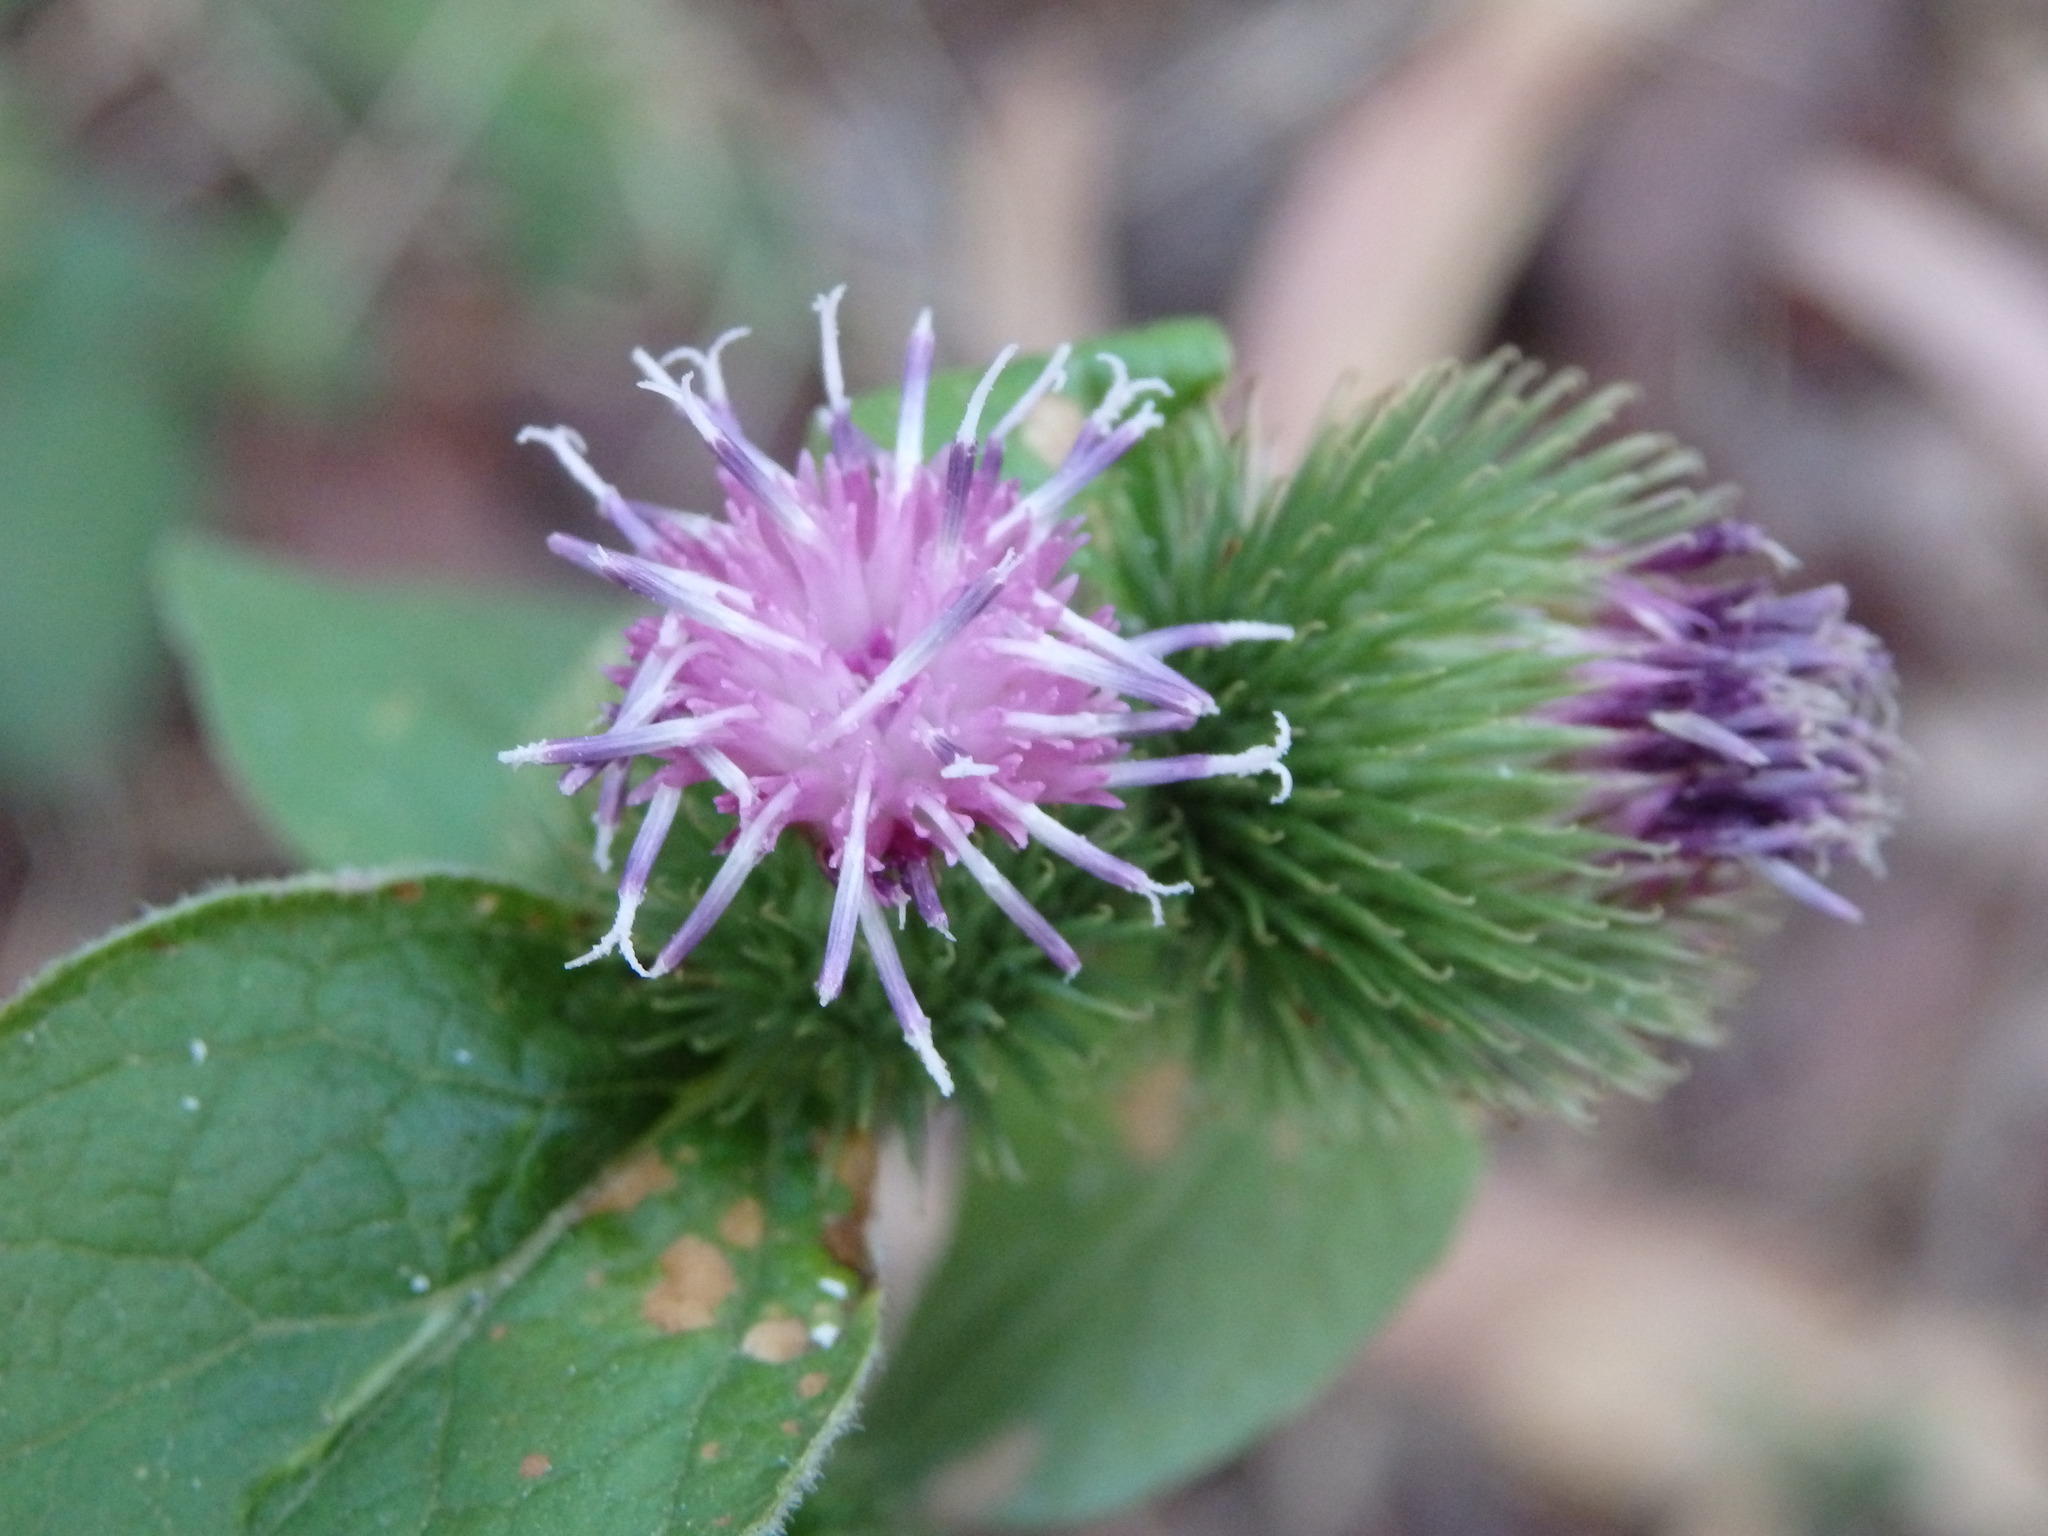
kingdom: Plantae
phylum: Tracheophyta
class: Magnoliopsida
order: Asterales
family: Asteraceae
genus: Arctium
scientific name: Arctium minus
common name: Lesser burdock
